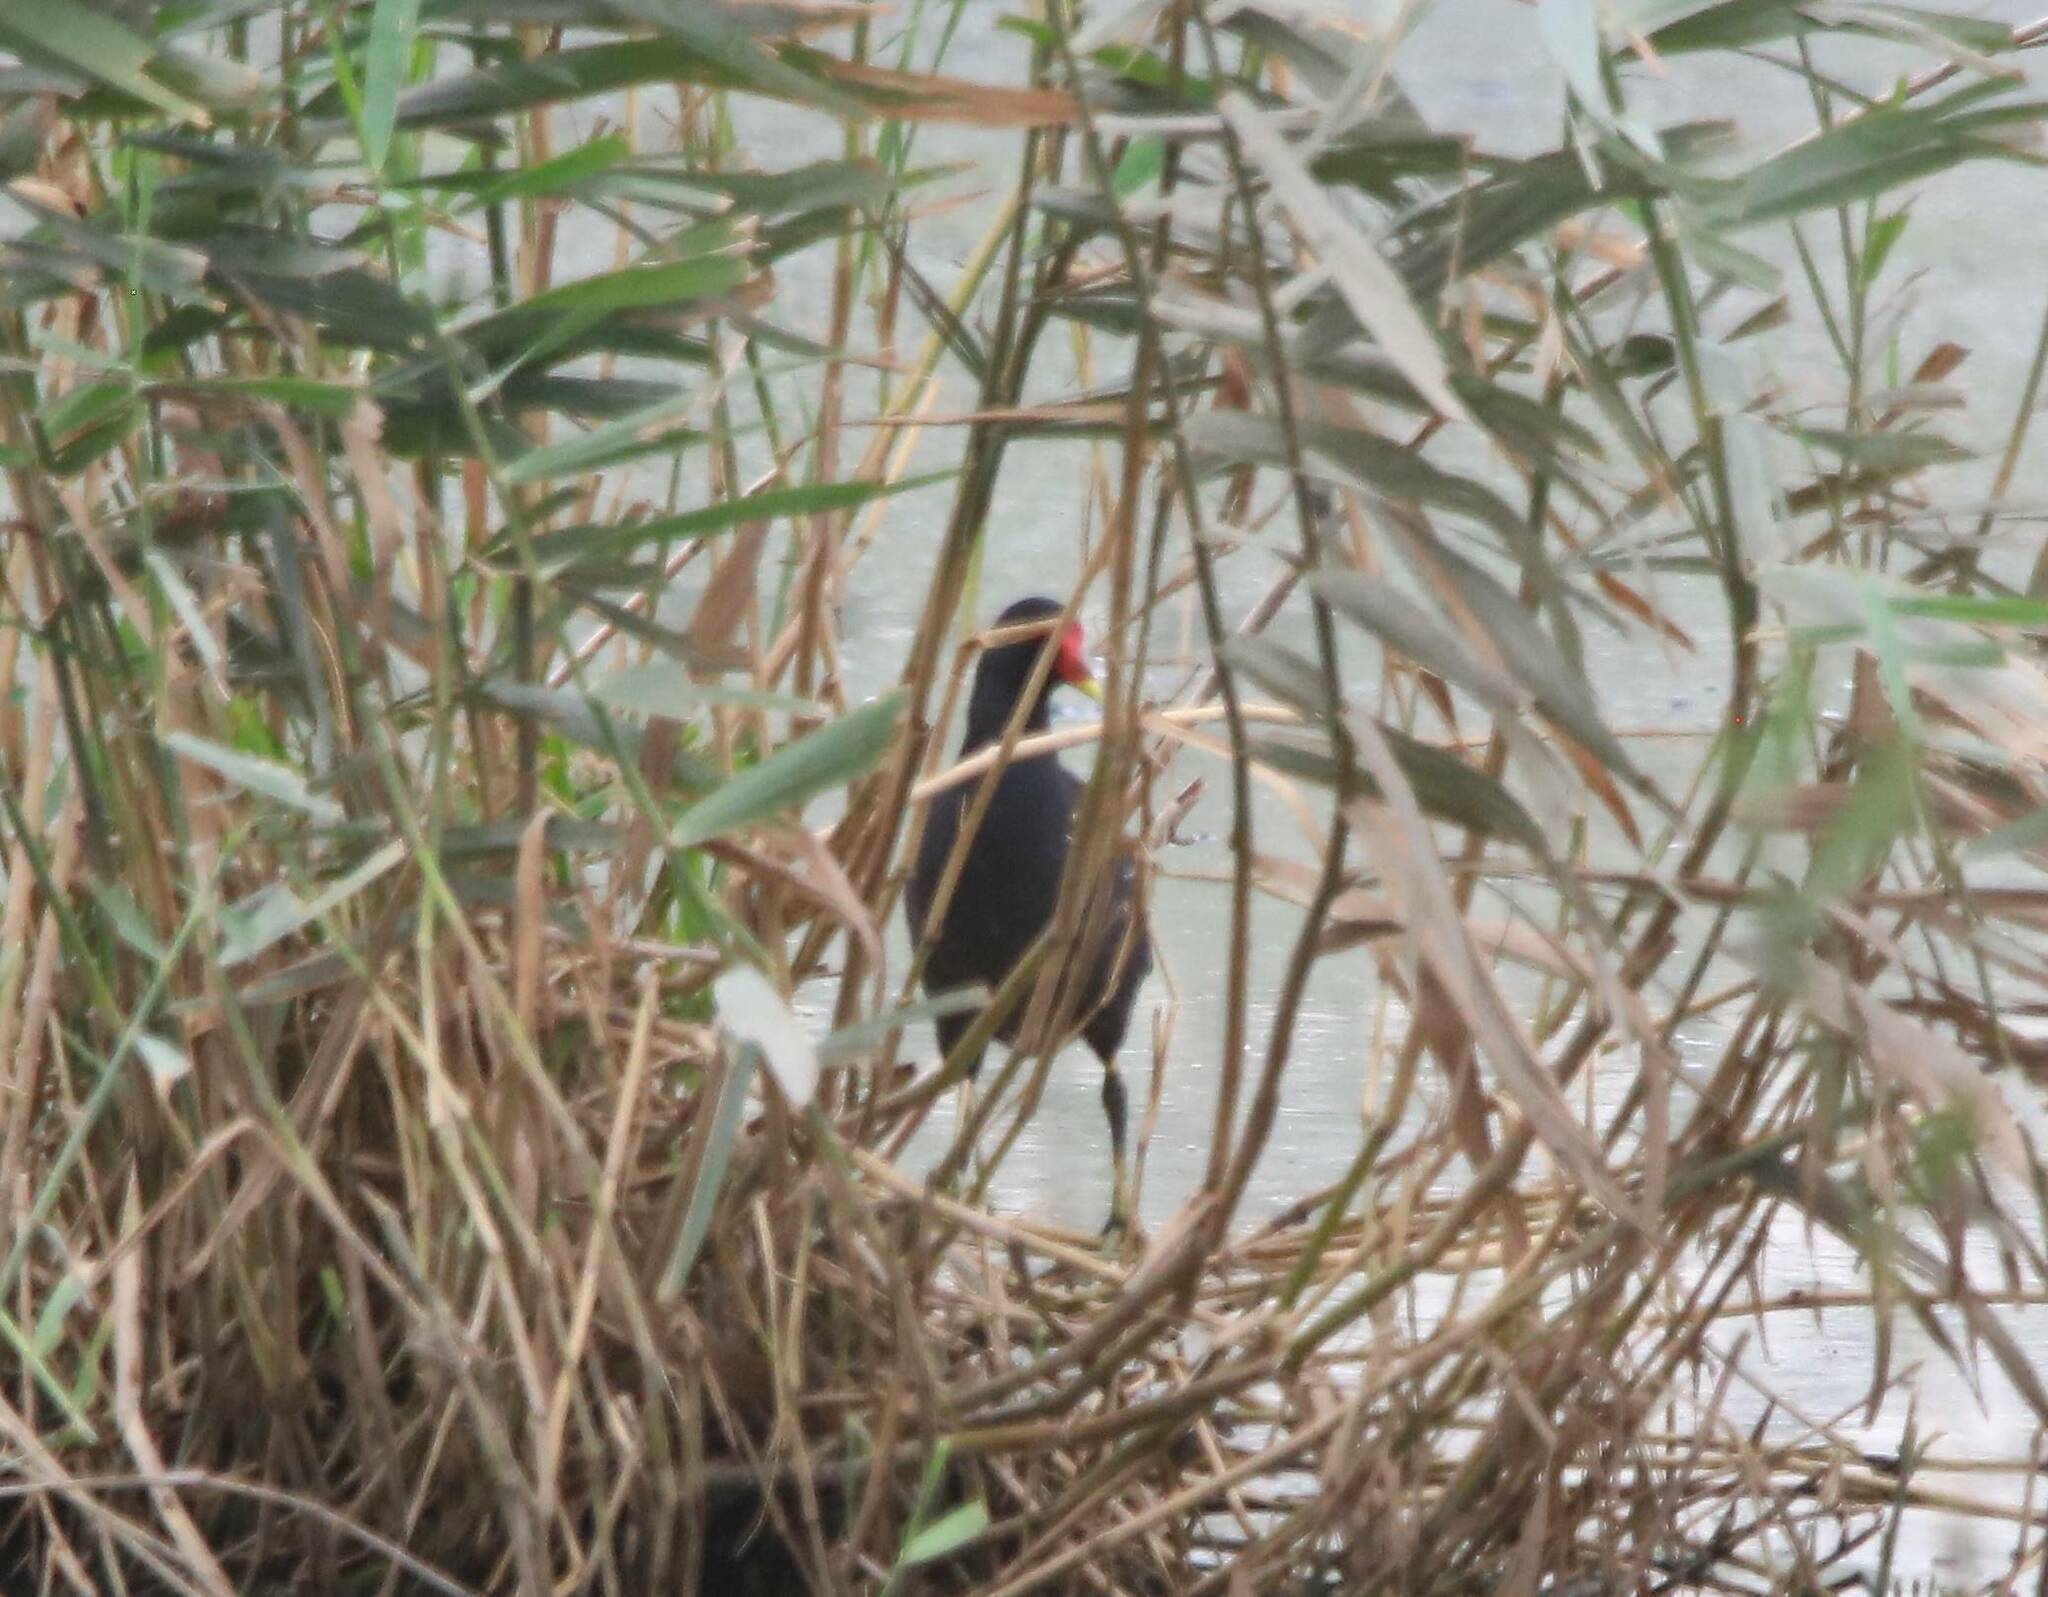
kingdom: Animalia
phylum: Chordata
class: Aves
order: Gruiformes
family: Rallidae
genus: Gallinula
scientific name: Gallinula chloropus
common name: Common moorhen
